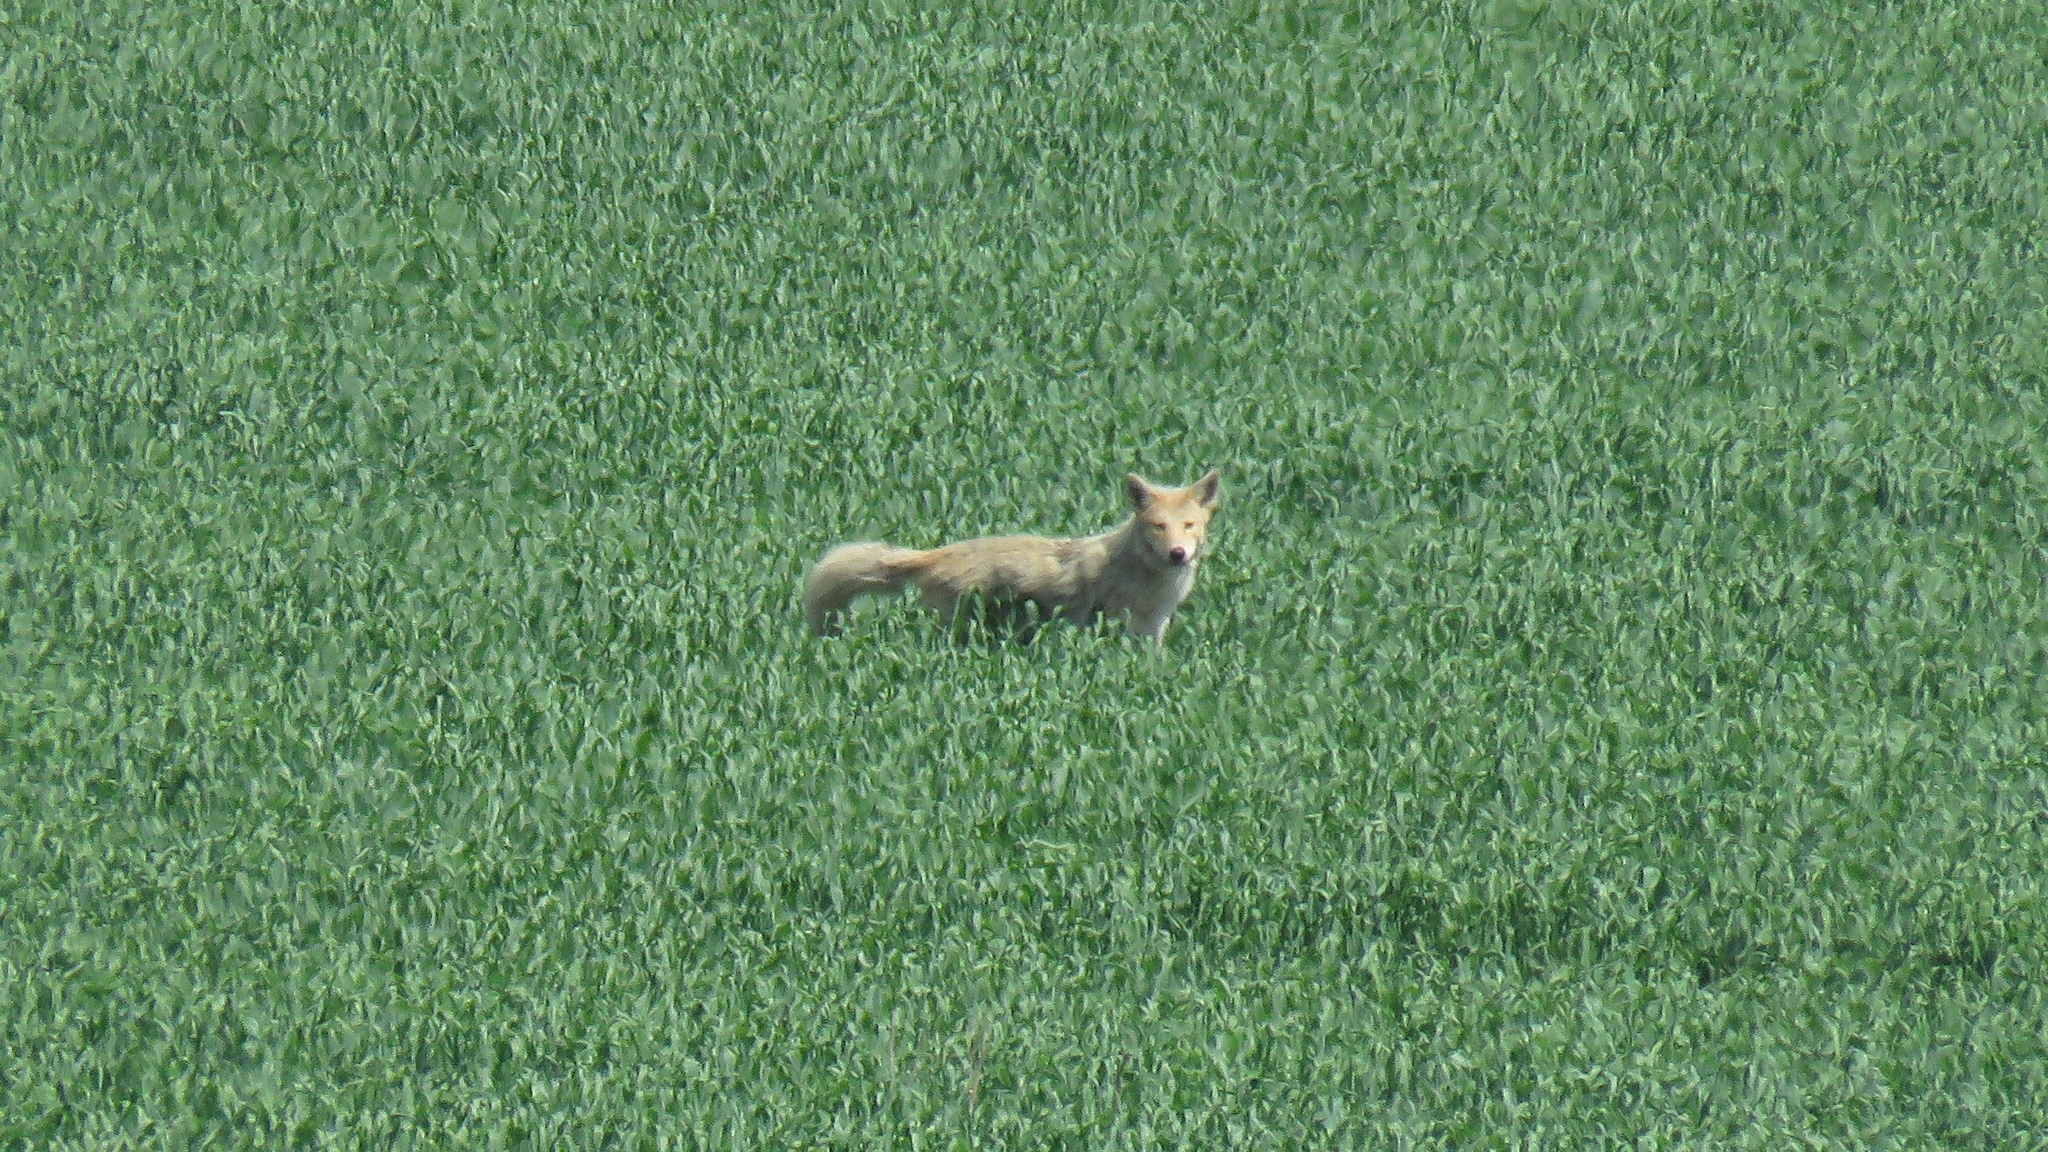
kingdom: Animalia
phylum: Chordata
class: Mammalia
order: Carnivora
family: Canidae
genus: Canis
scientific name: Canis latrans
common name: Coyote
